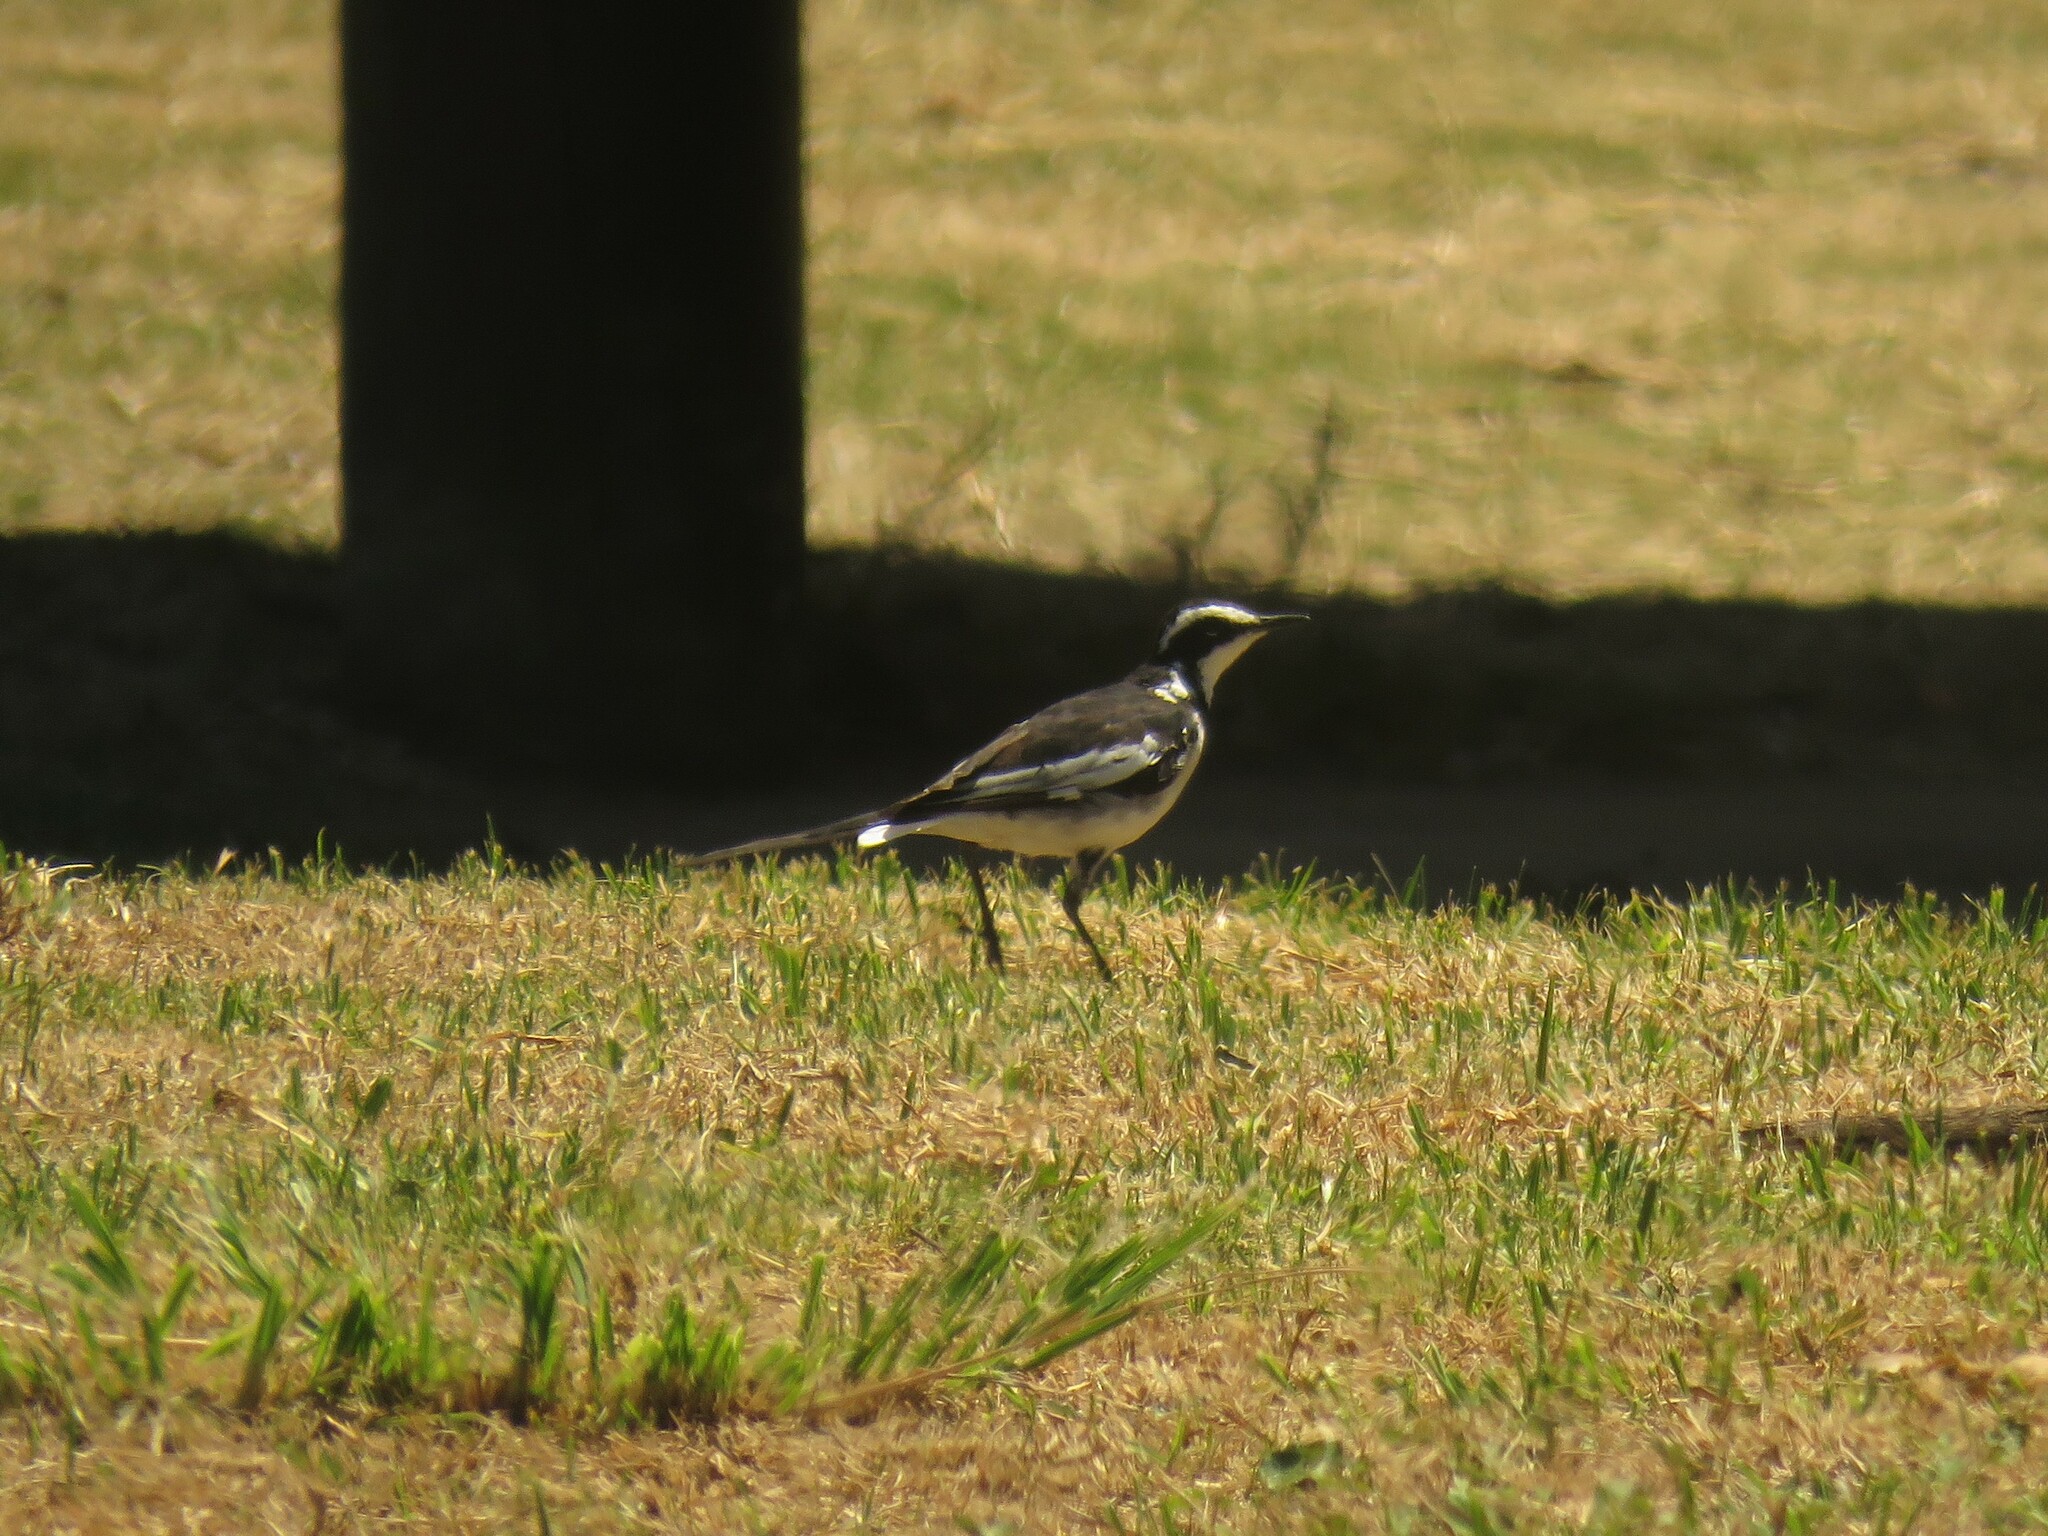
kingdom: Animalia
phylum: Chordata
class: Aves
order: Passeriformes
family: Motacillidae
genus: Motacilla
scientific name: Motacilla aguimp
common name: African pied wagtail
